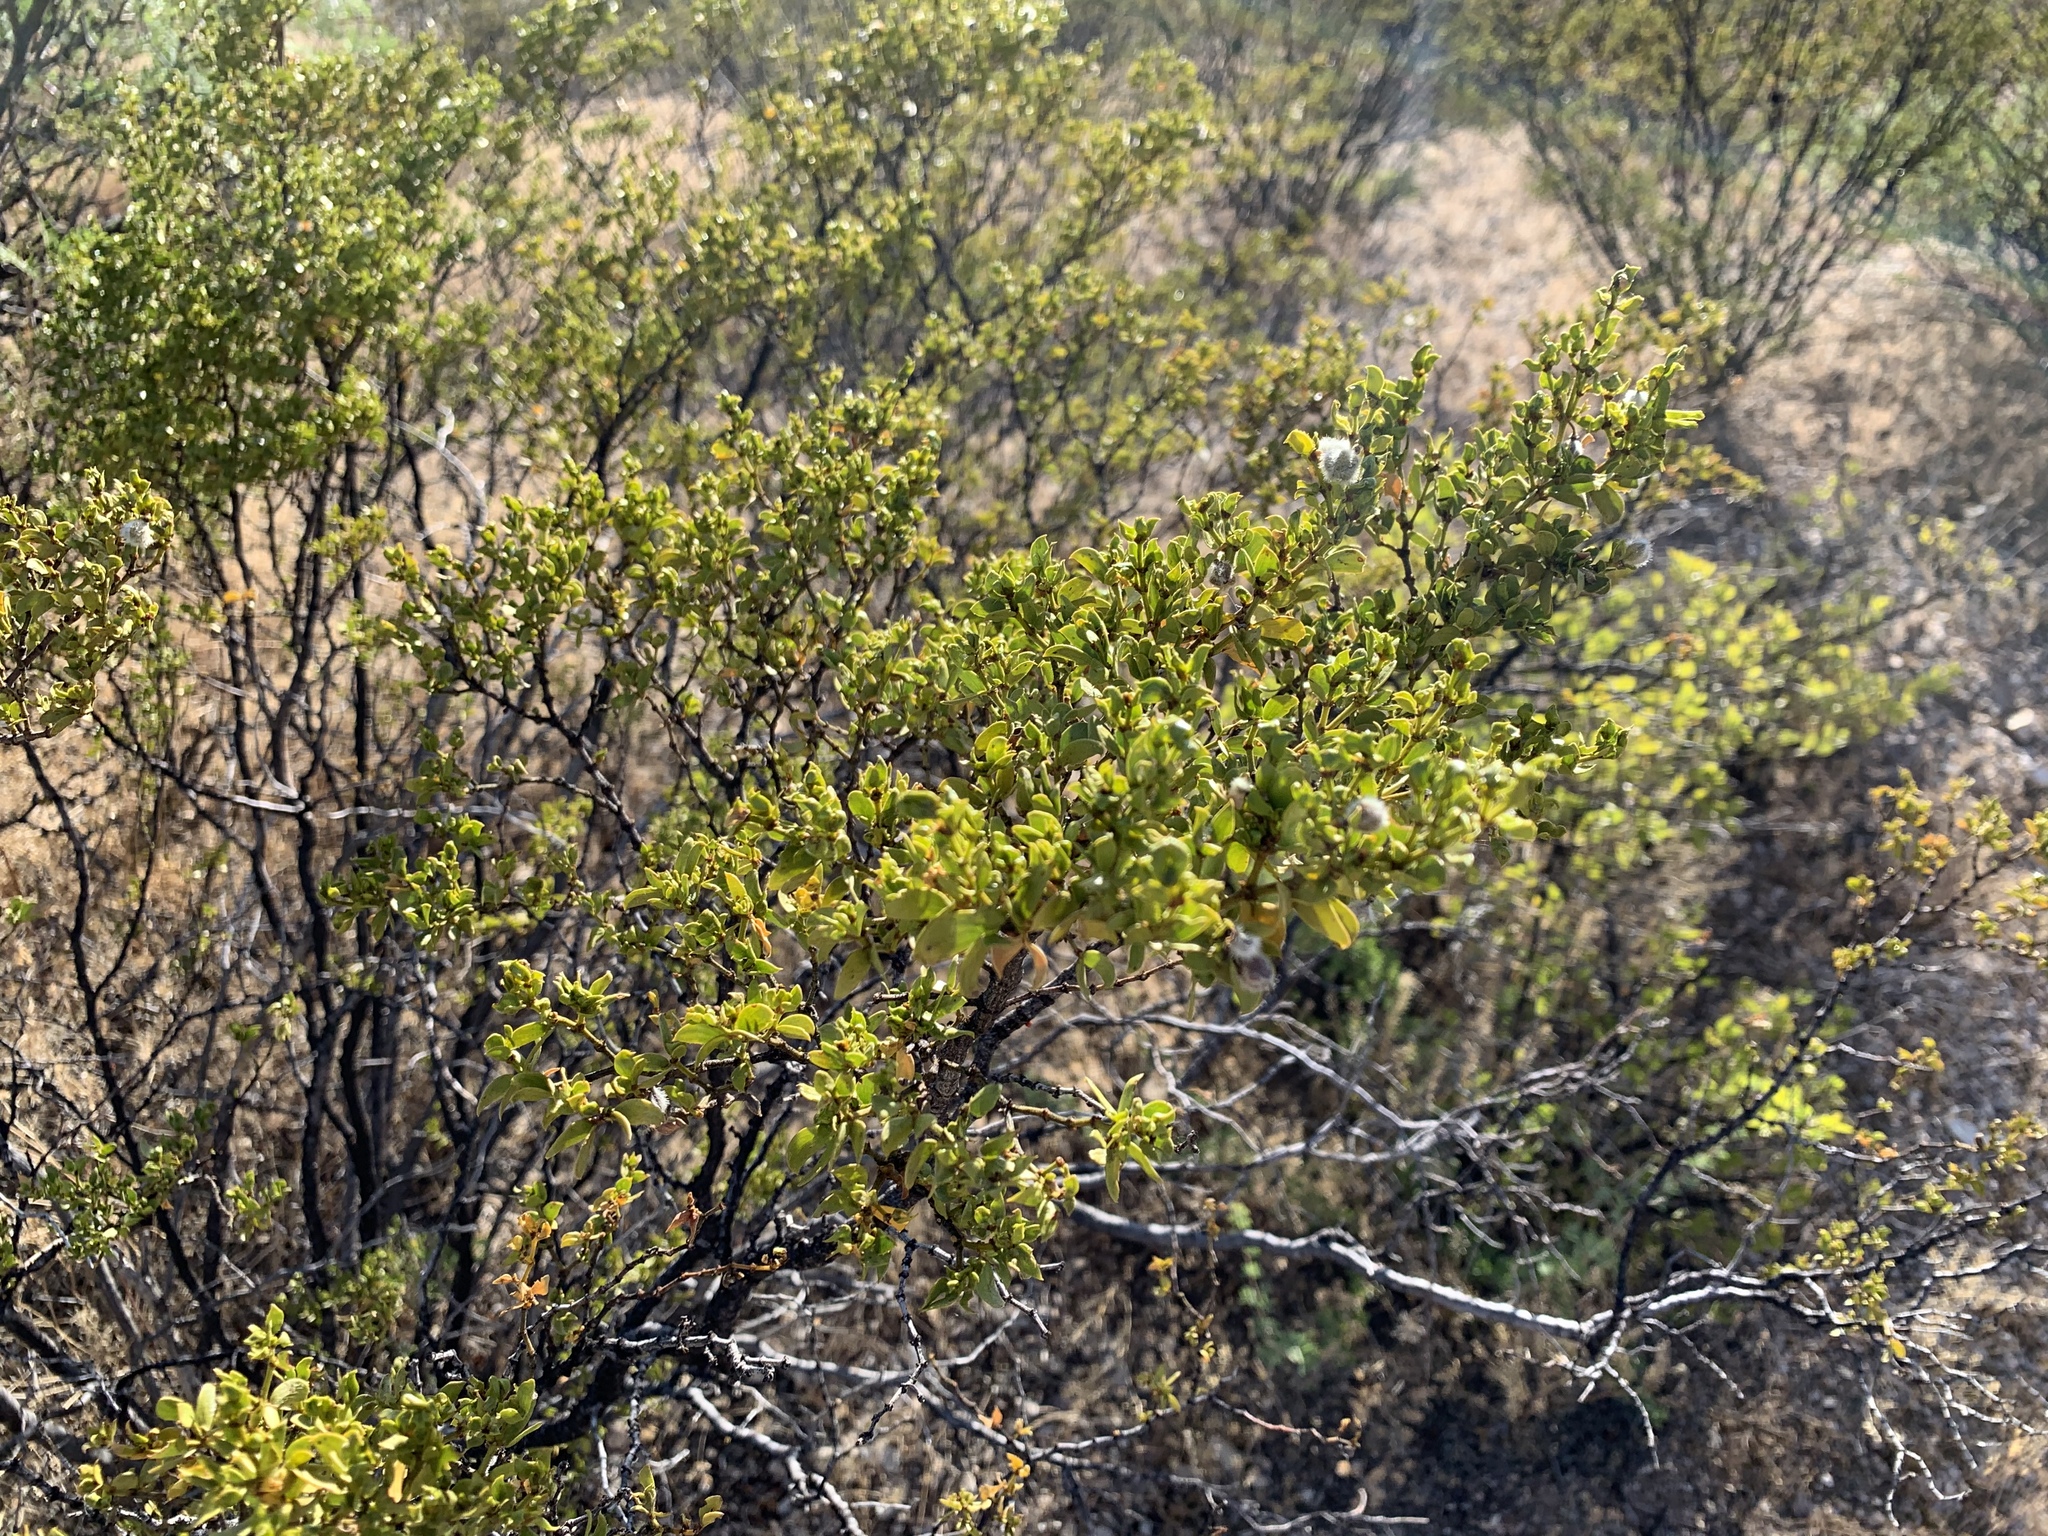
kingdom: Plantae
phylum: Tracheophyta
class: Magnoliopsida
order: Zygophyllales
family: Zygophyllaceae
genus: Larrea
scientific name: Larrea tridentata
